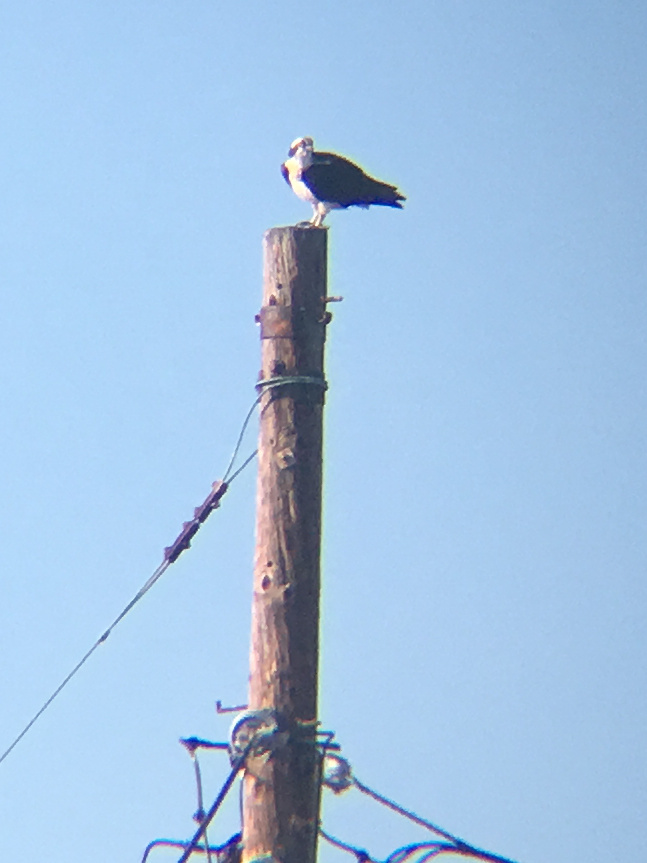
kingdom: Animalia
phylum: Chordata
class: Aves
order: Accipitriformes
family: Pandionidae
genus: Pandion
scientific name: Pandion haliaetus
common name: Osprey
